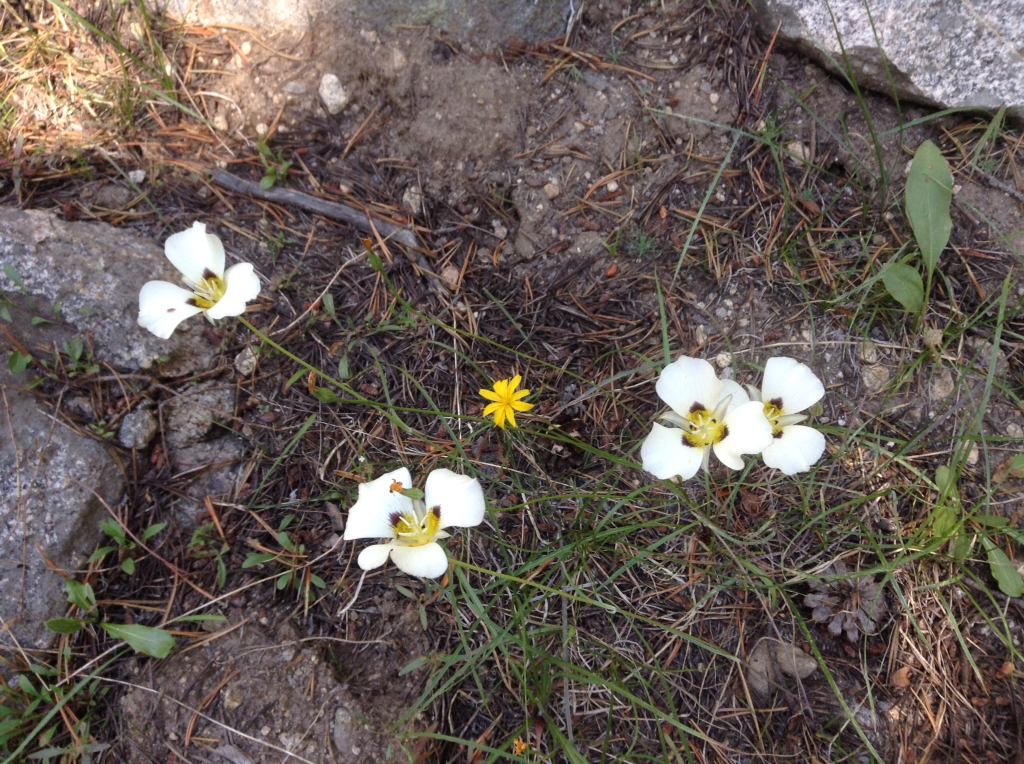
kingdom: Plantae
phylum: Tracheophyta
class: Liliopsida
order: Liliales
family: Liliaceae
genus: Calochortus
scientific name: Calochortus leichtlinii
